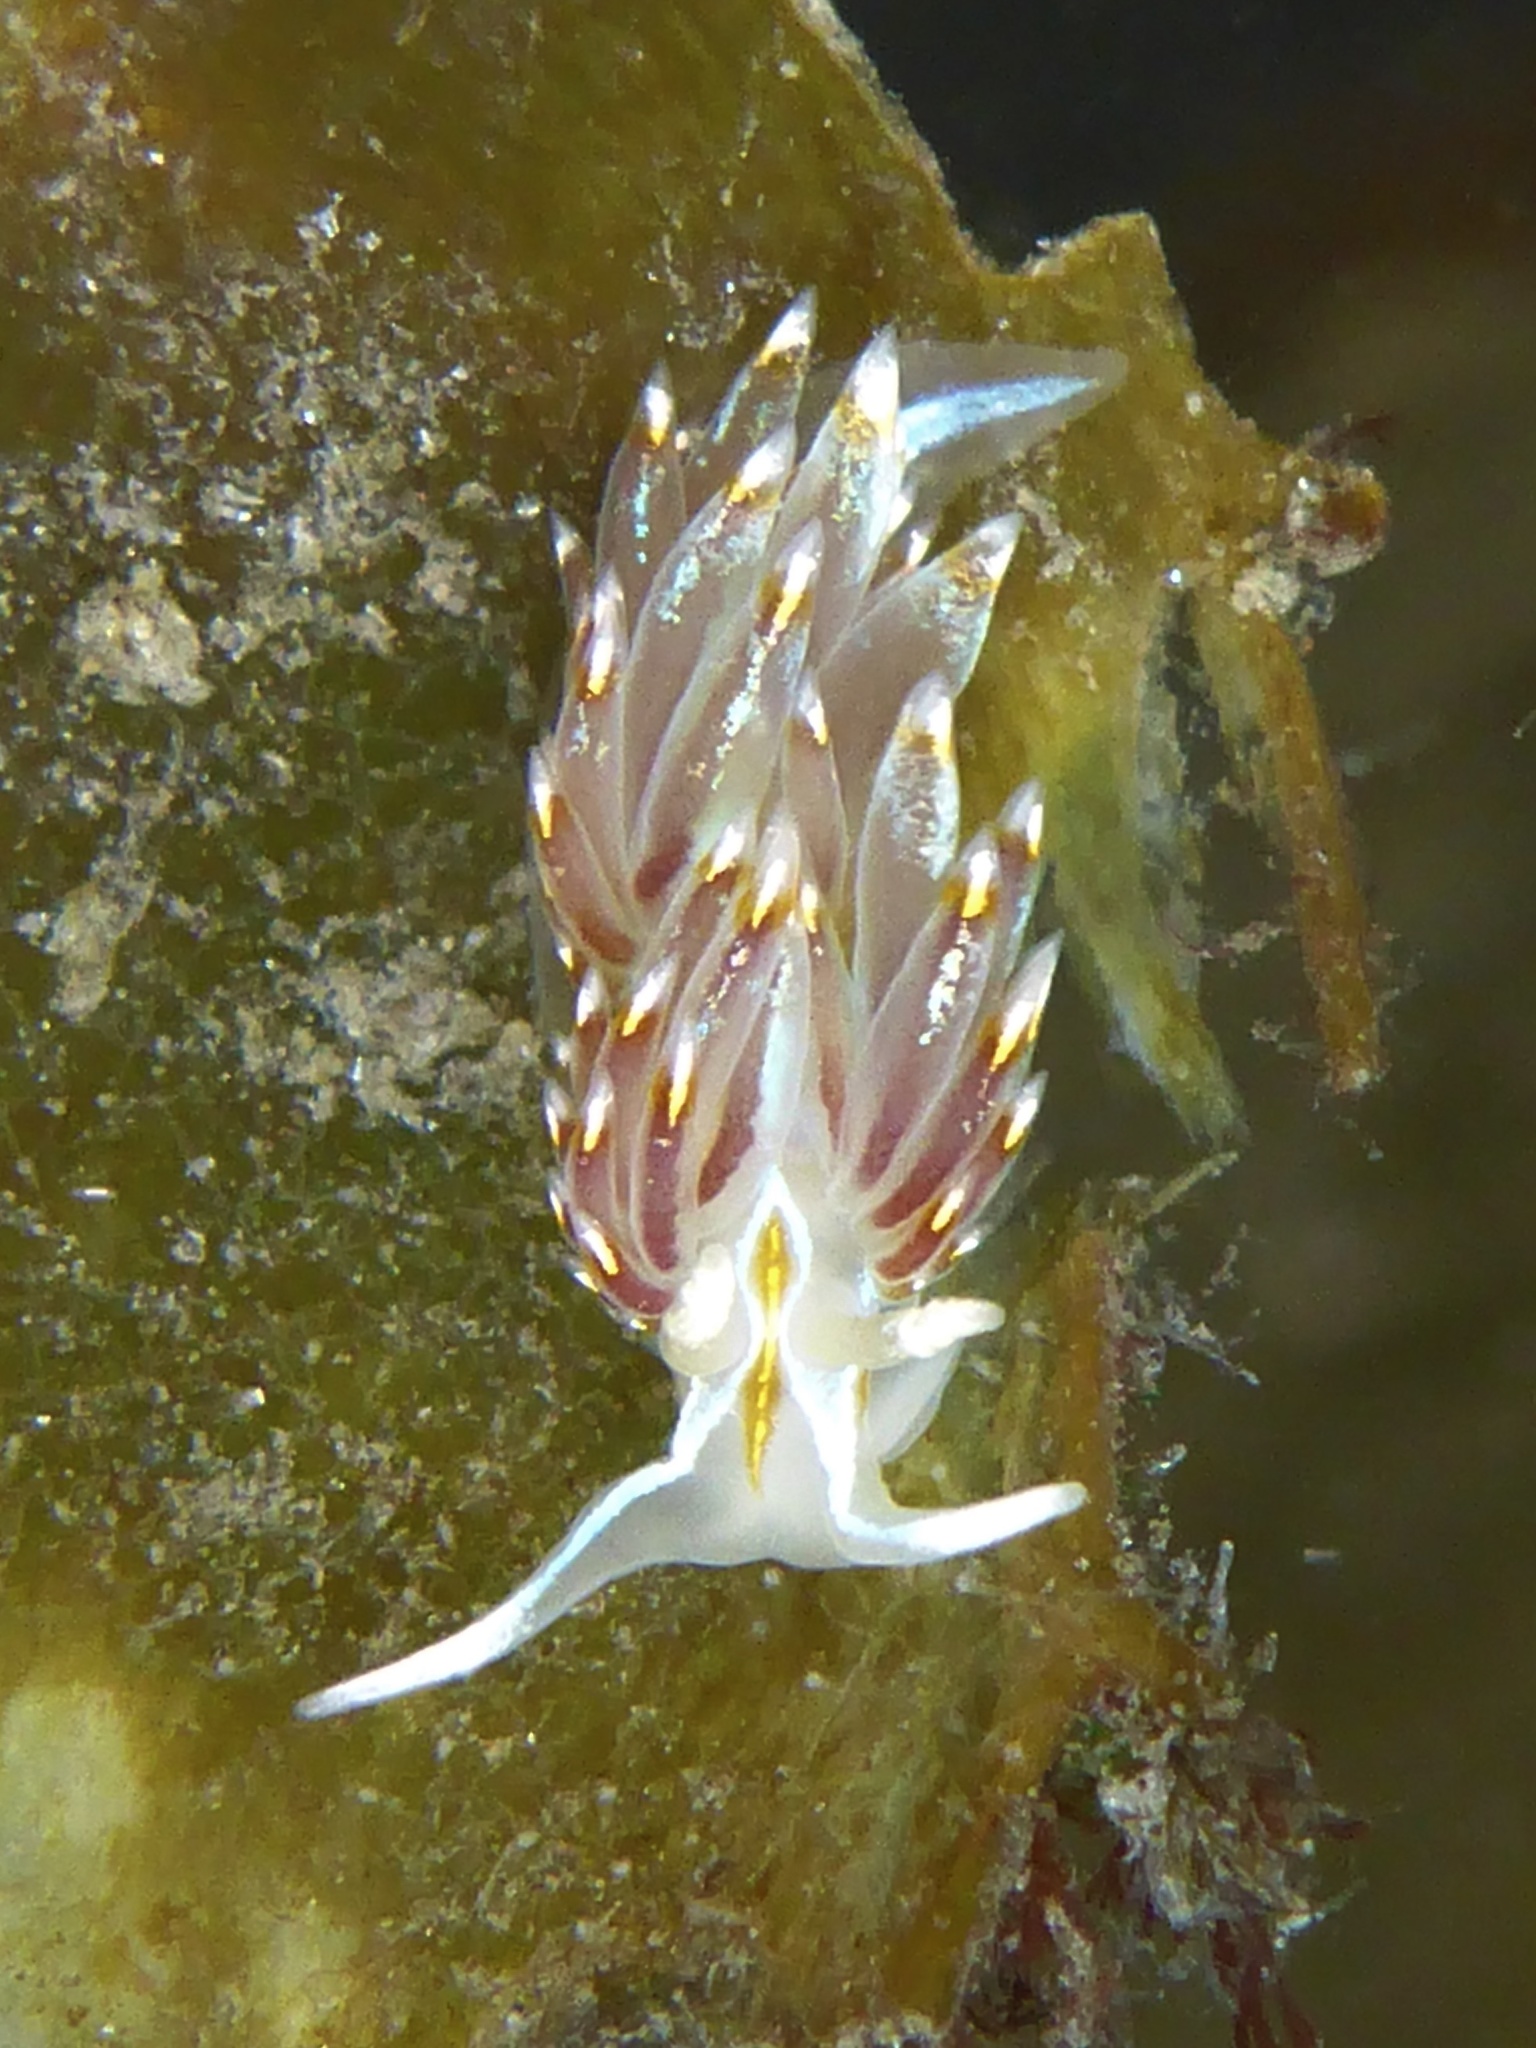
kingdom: Animalia
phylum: Mollusca
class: Gastropoda
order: Nudibranchia
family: Myrrhinidae
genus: Hermissenda
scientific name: Hermissenda opalescens
